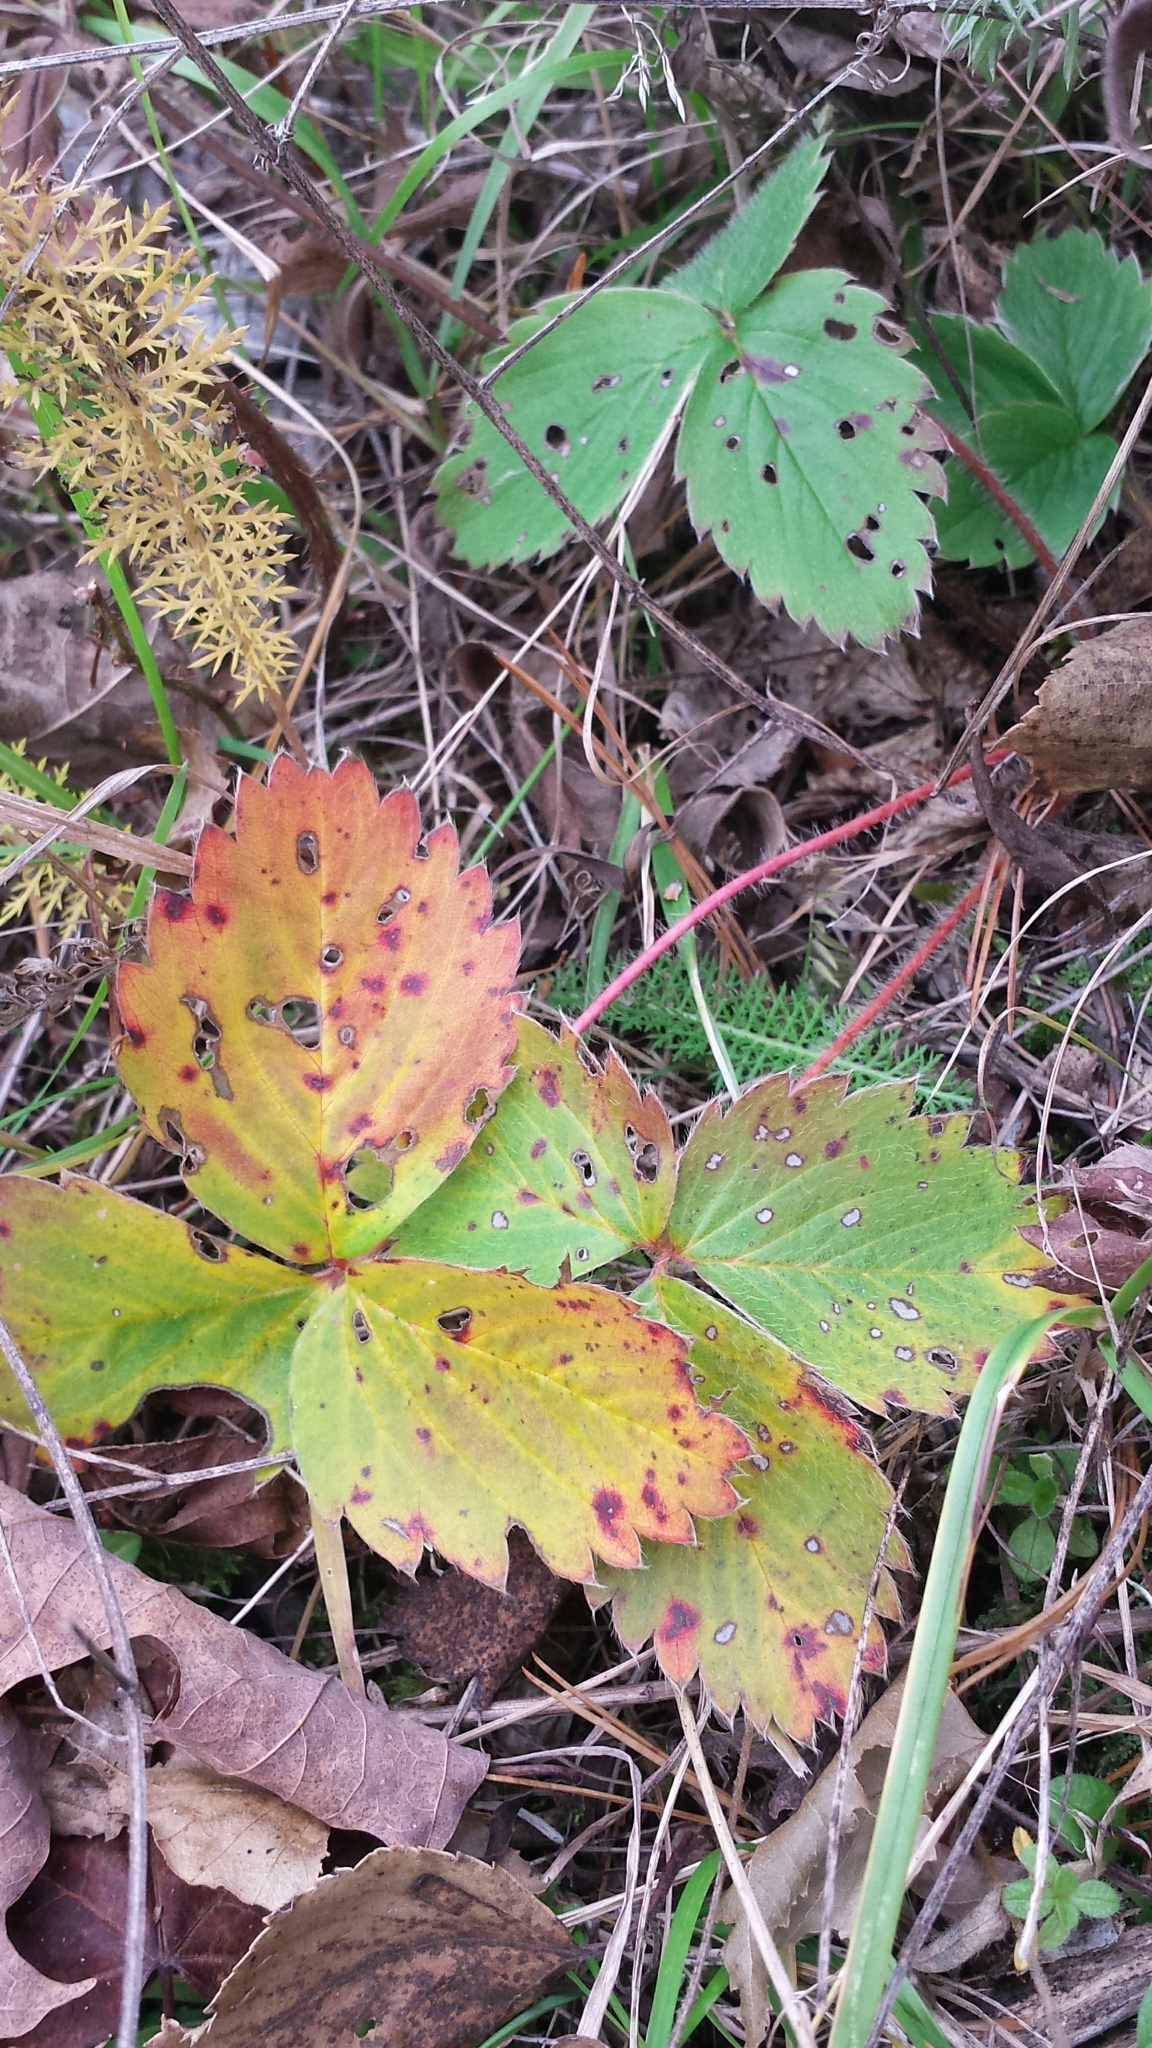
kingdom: Plantae
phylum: Tracheophyta
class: Magnoliopsida
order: Rosales
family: Rosaceae
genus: Fragaria
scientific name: Fragaria virginiana
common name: Thickleaved wild strawberry
